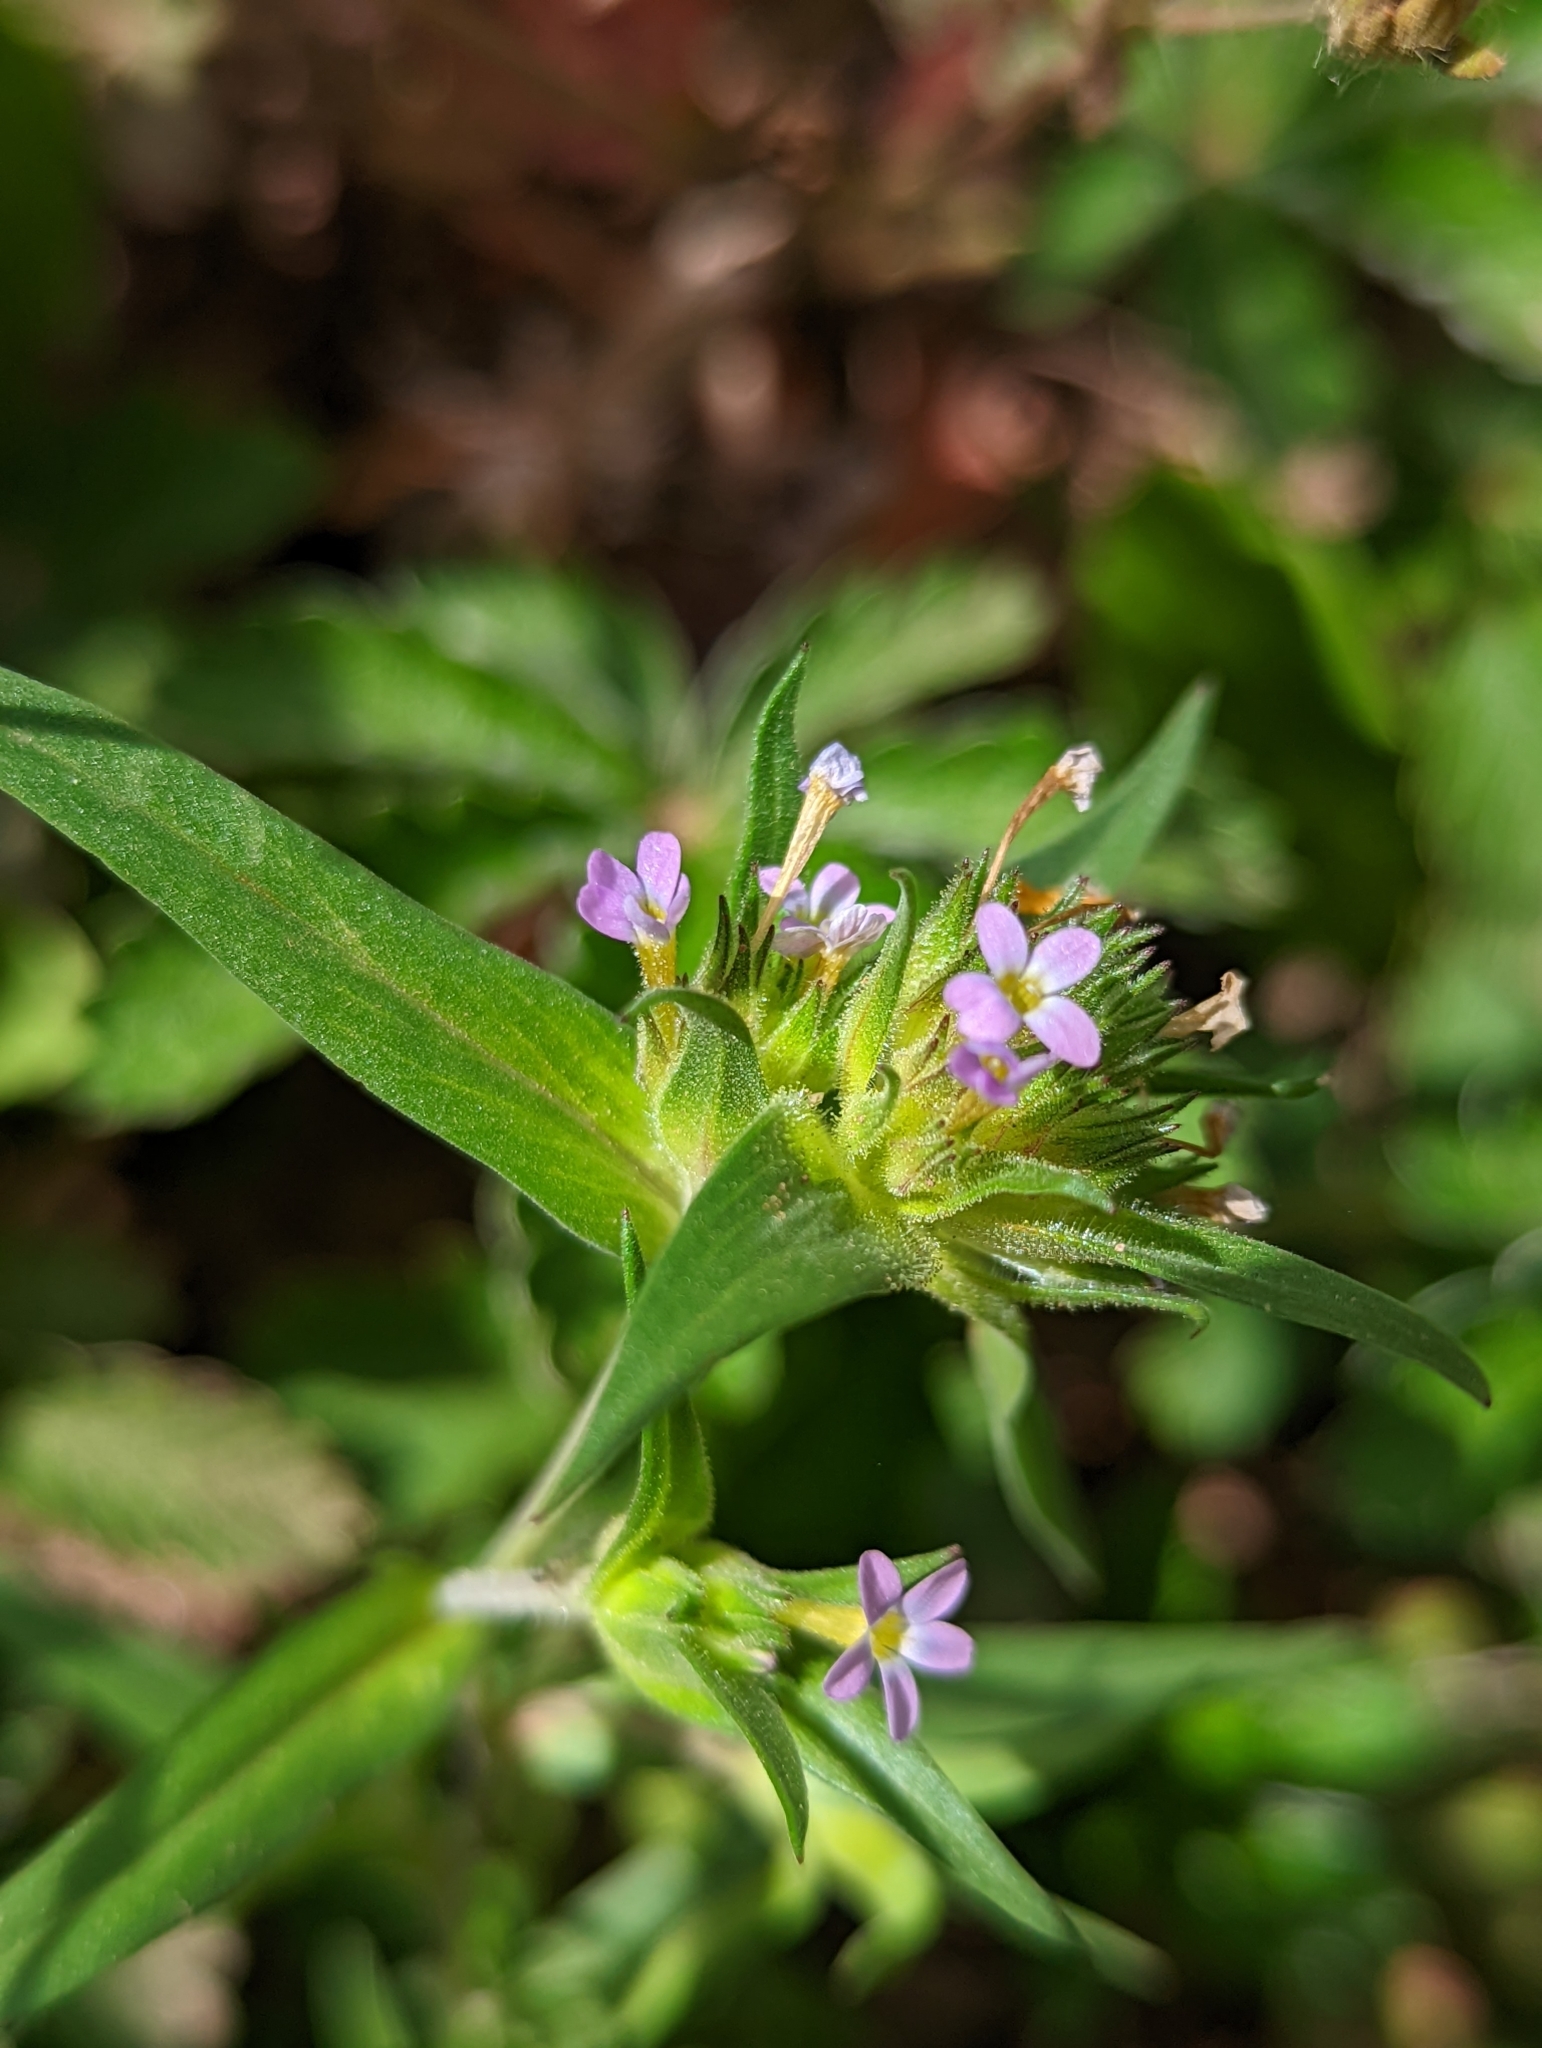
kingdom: Plantae
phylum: Tracheophyta
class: Magnoliopsida
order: Ericales
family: Polemoniaceae
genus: Collomia
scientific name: Collomia linearis
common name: Tiny trumpet
